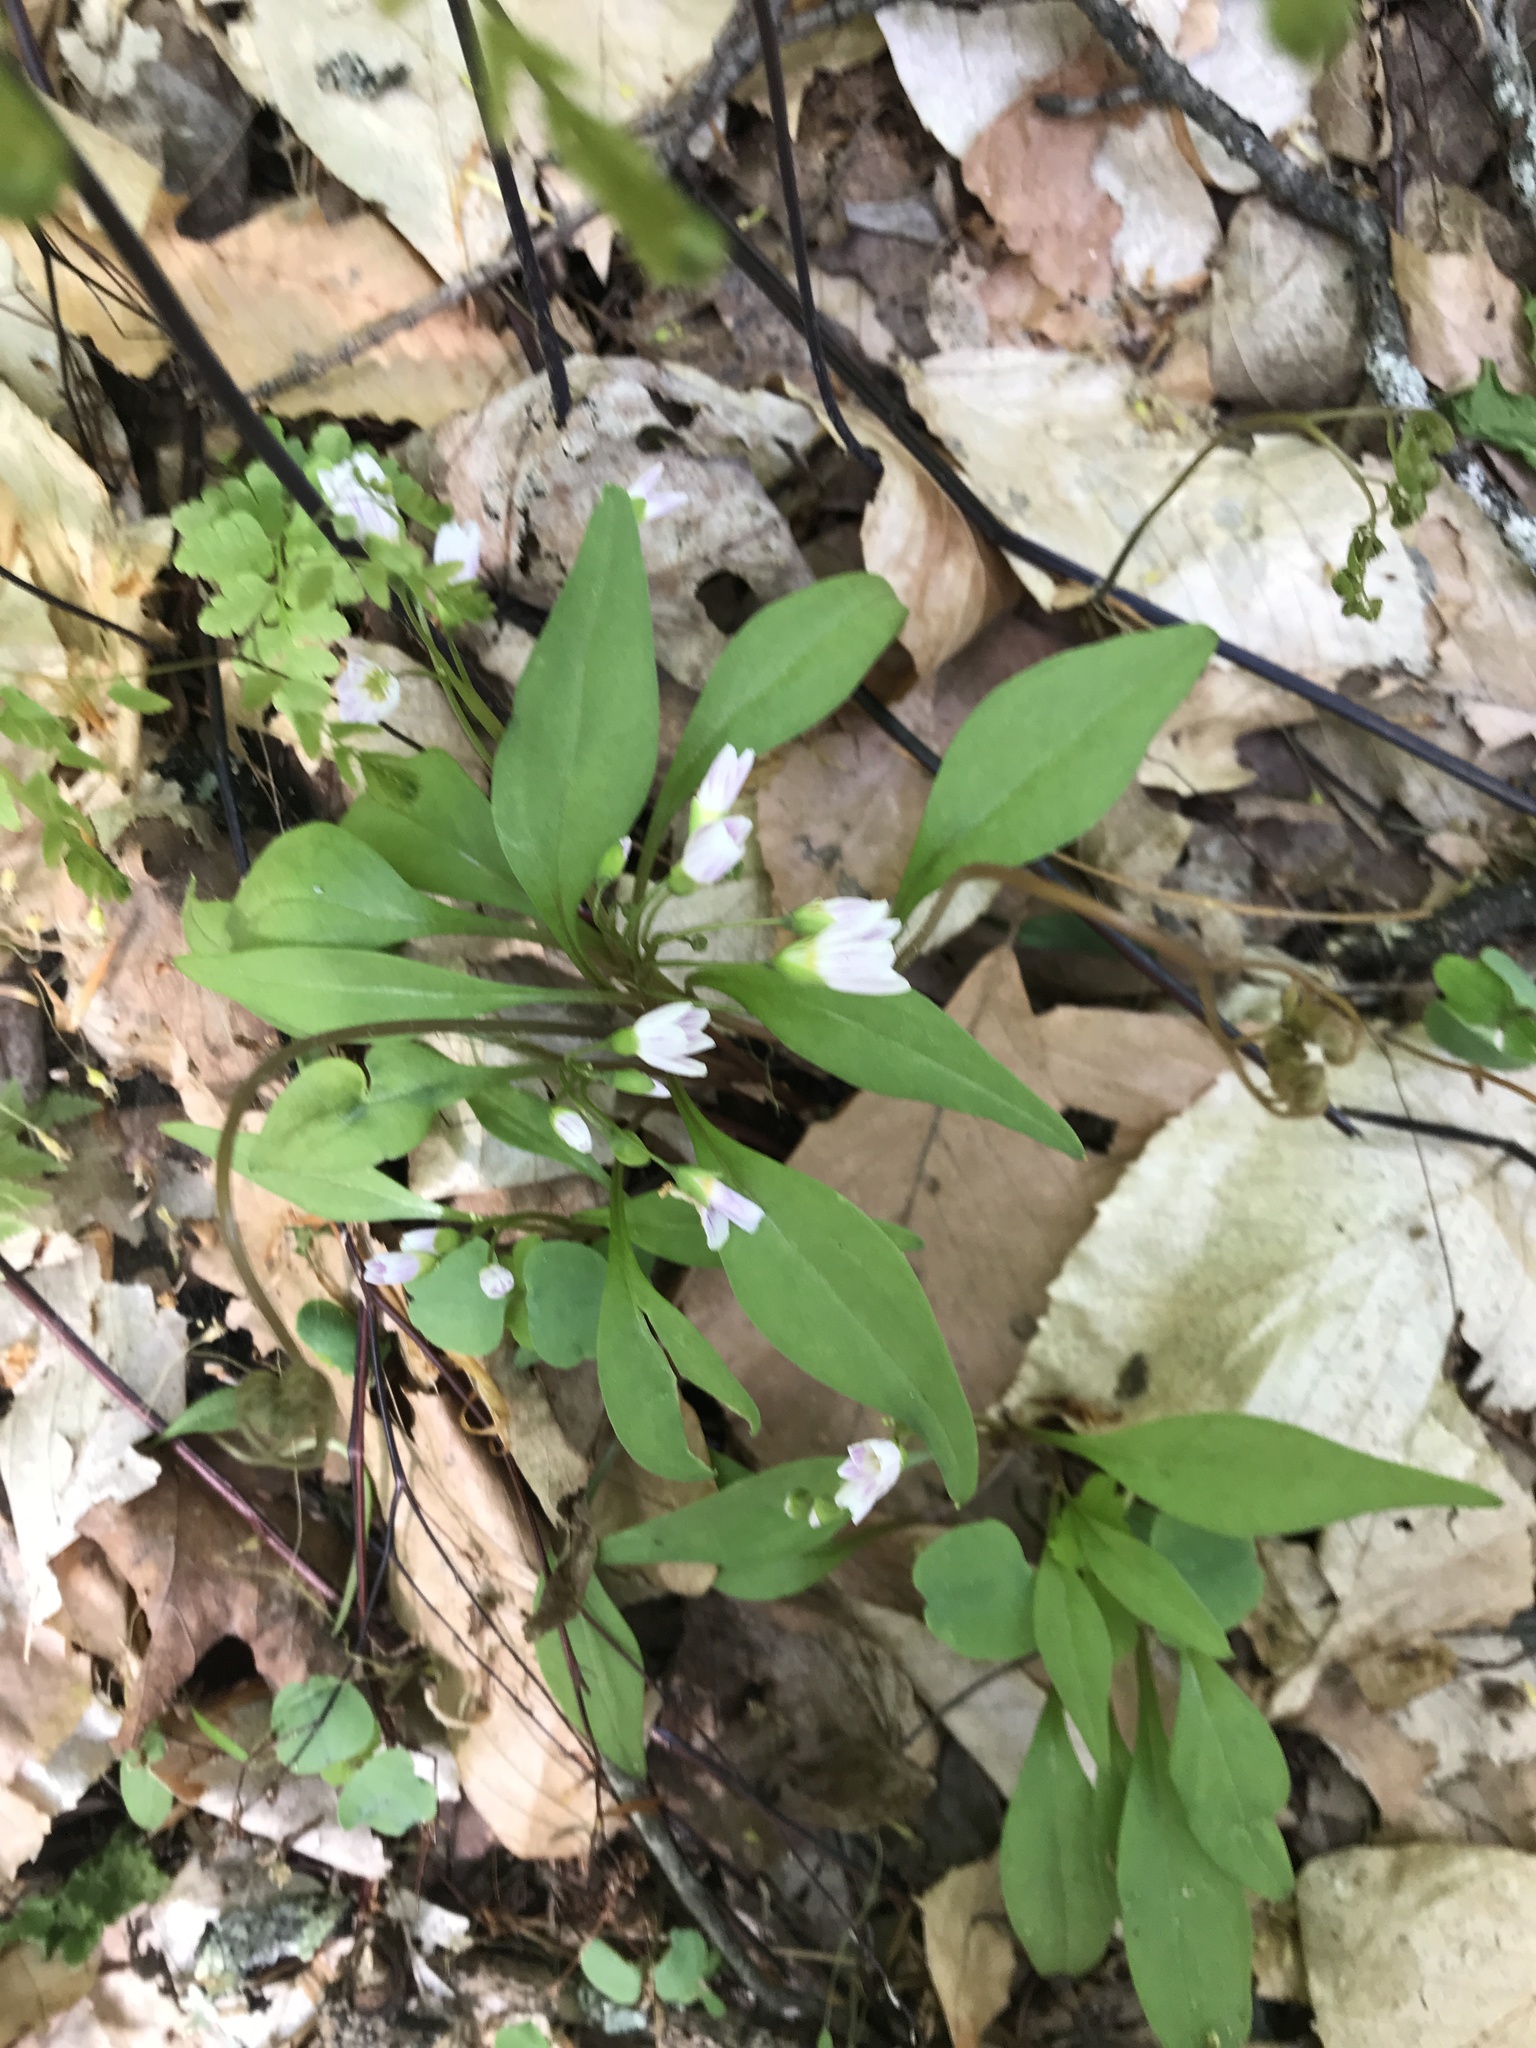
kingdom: Plantae
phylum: Tracheophyta
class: Magnoliopsida
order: Caryophyllales
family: Montiaceae
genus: Claytonia
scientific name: Claytonia caroliniana
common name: Carolina spring beauty
